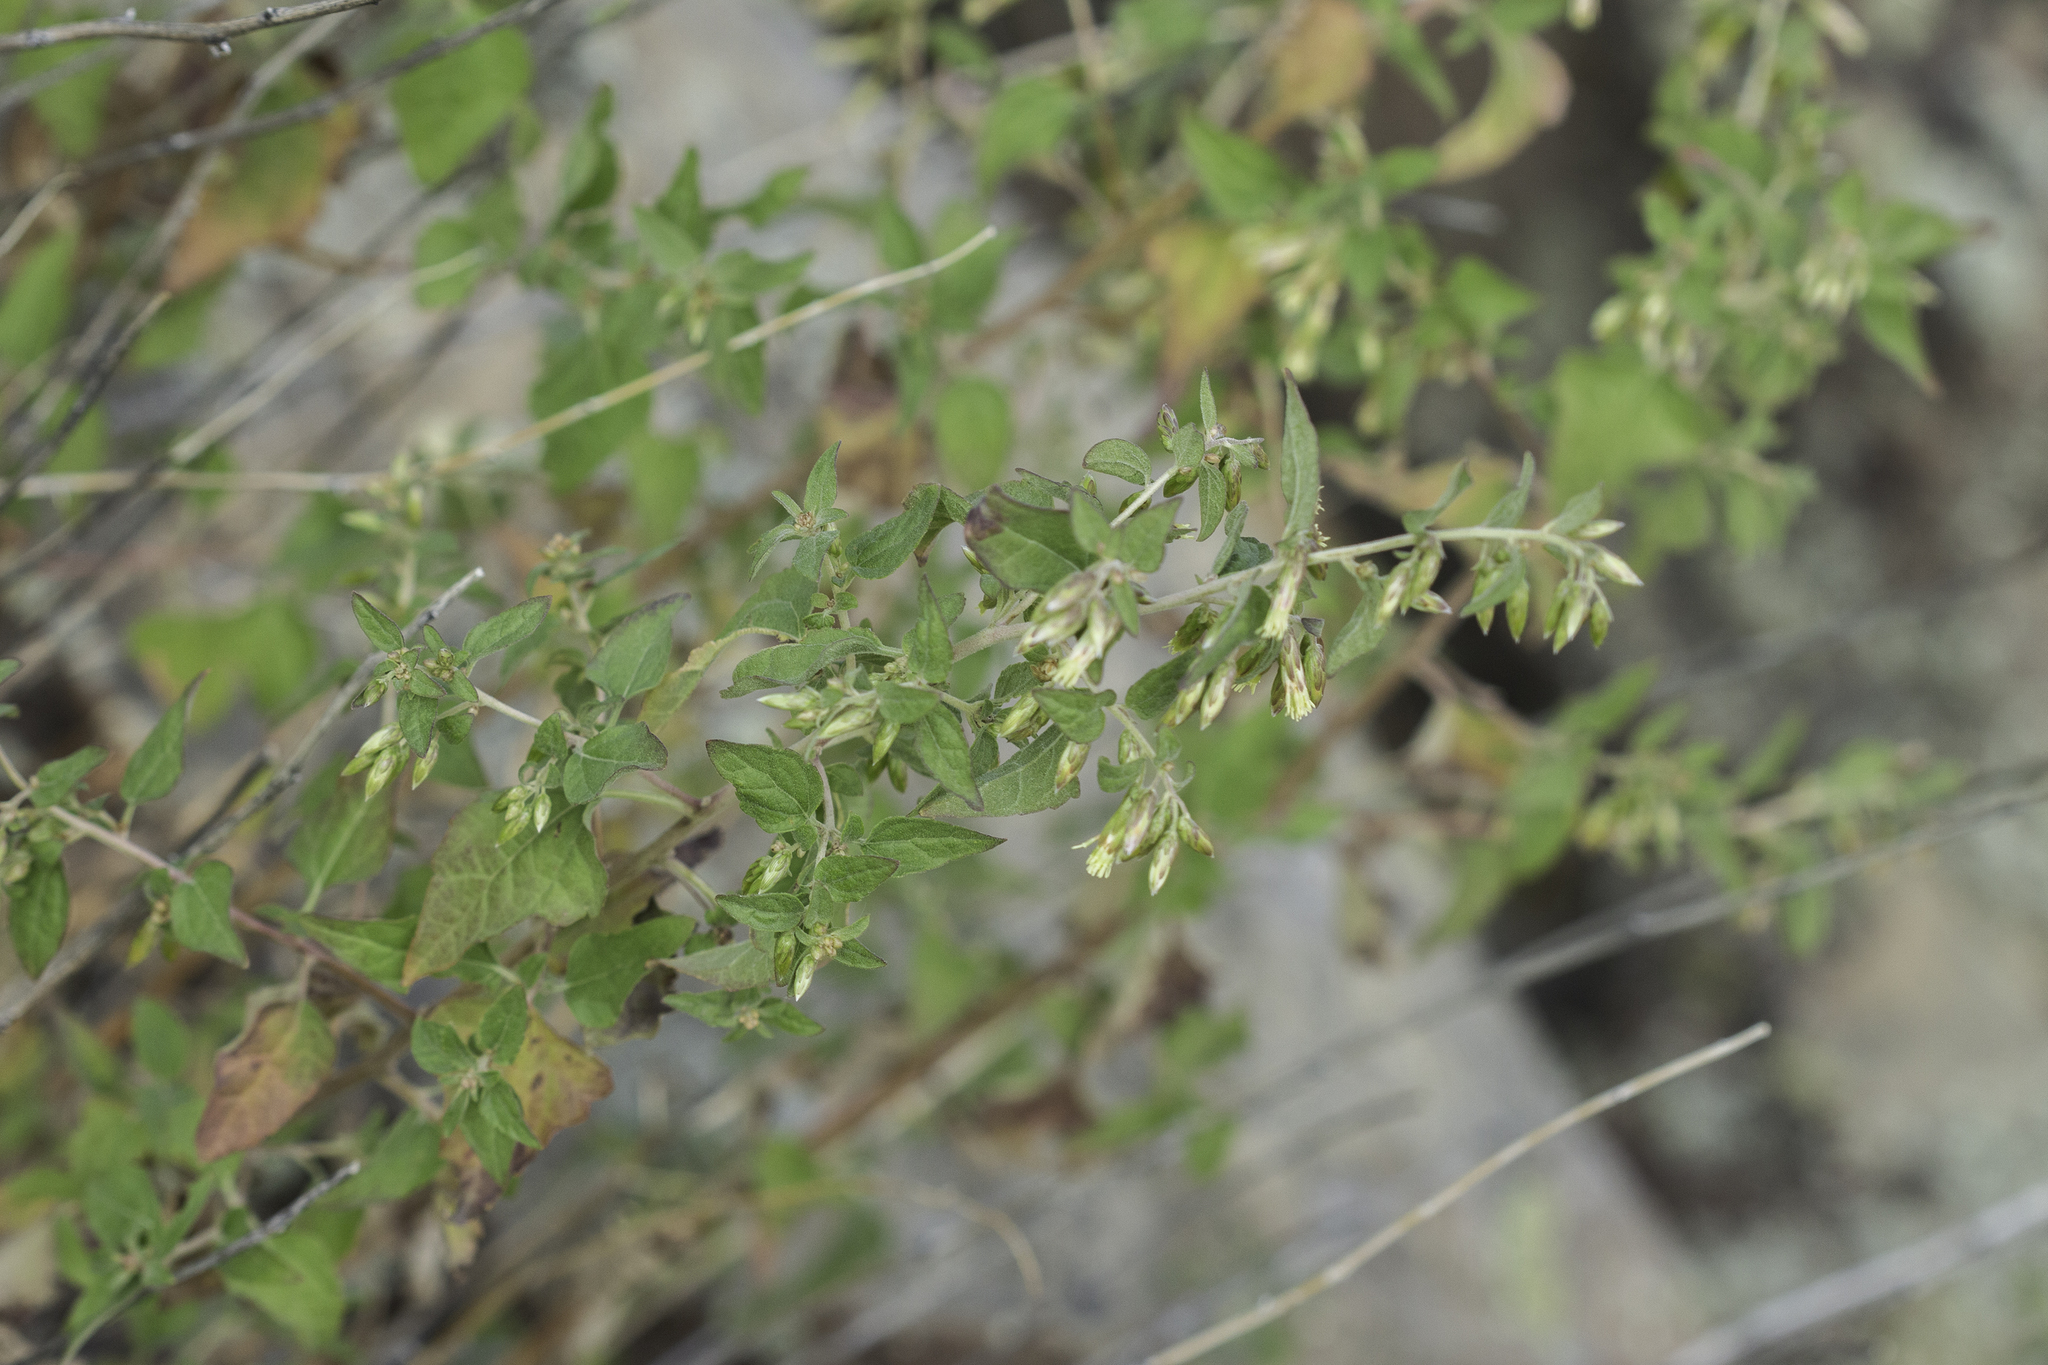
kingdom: Plantae
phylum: Tracheophyta
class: Magnoliopsida
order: Asterales
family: Asteraceae
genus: Brickellia
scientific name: Brickellia rusbyi
